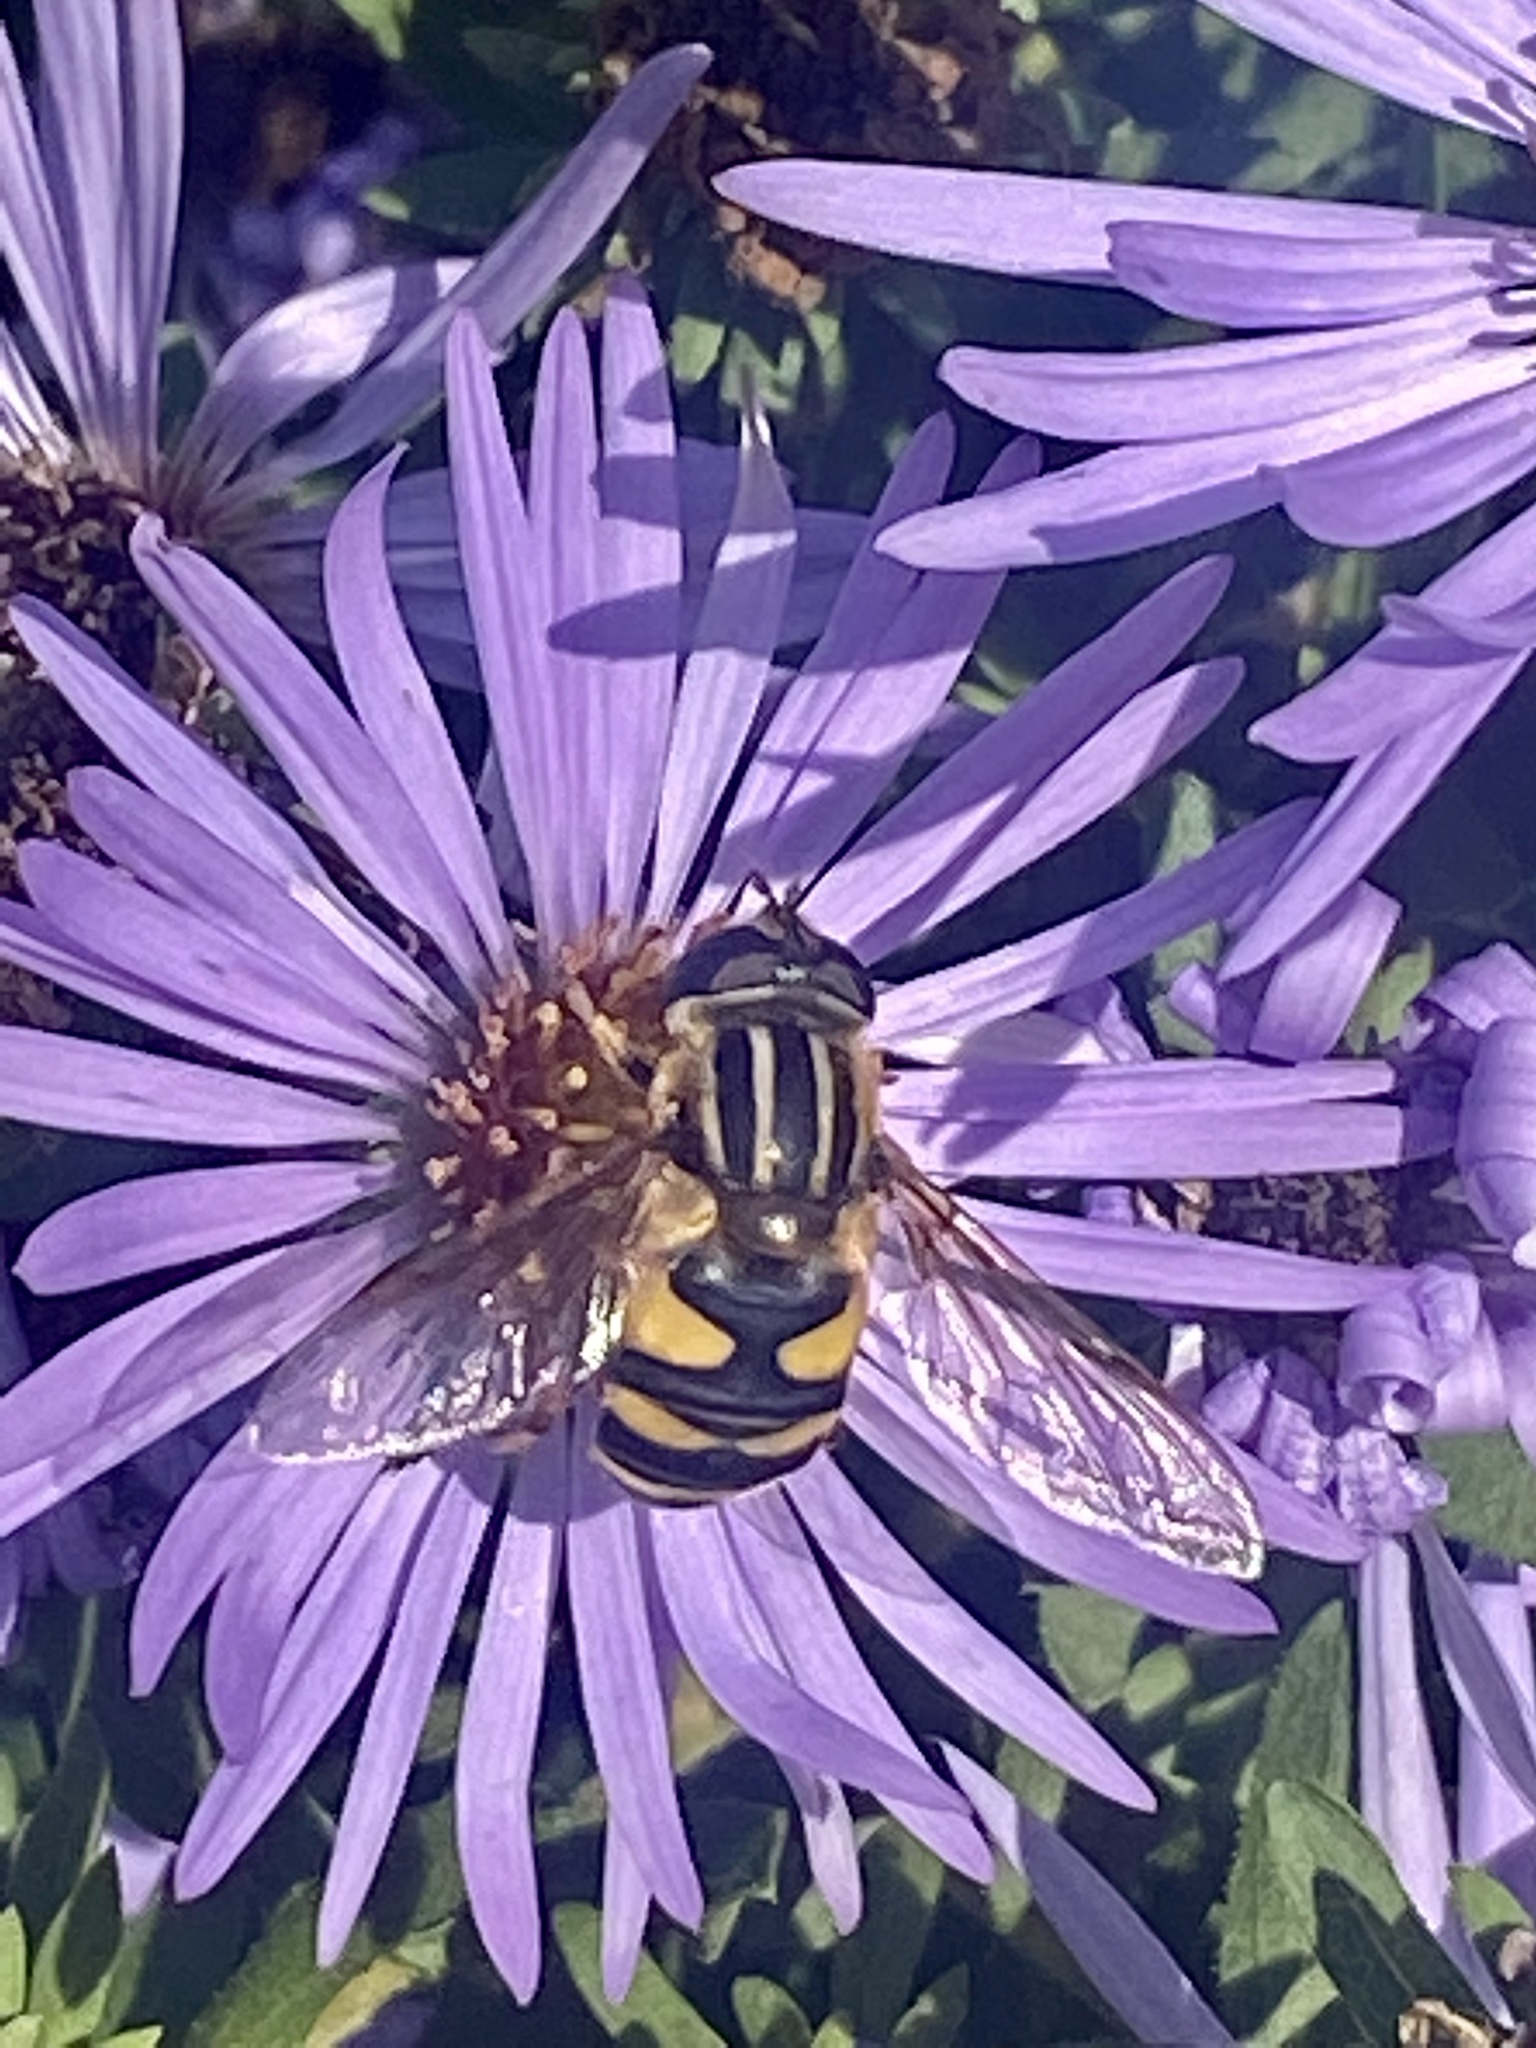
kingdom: Animalia
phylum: Arthropoda
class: Insecta
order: Diptera
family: Syrphidae
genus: Helophilus
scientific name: Helophilus fasciatus
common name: Narrow-headed marsh fly
